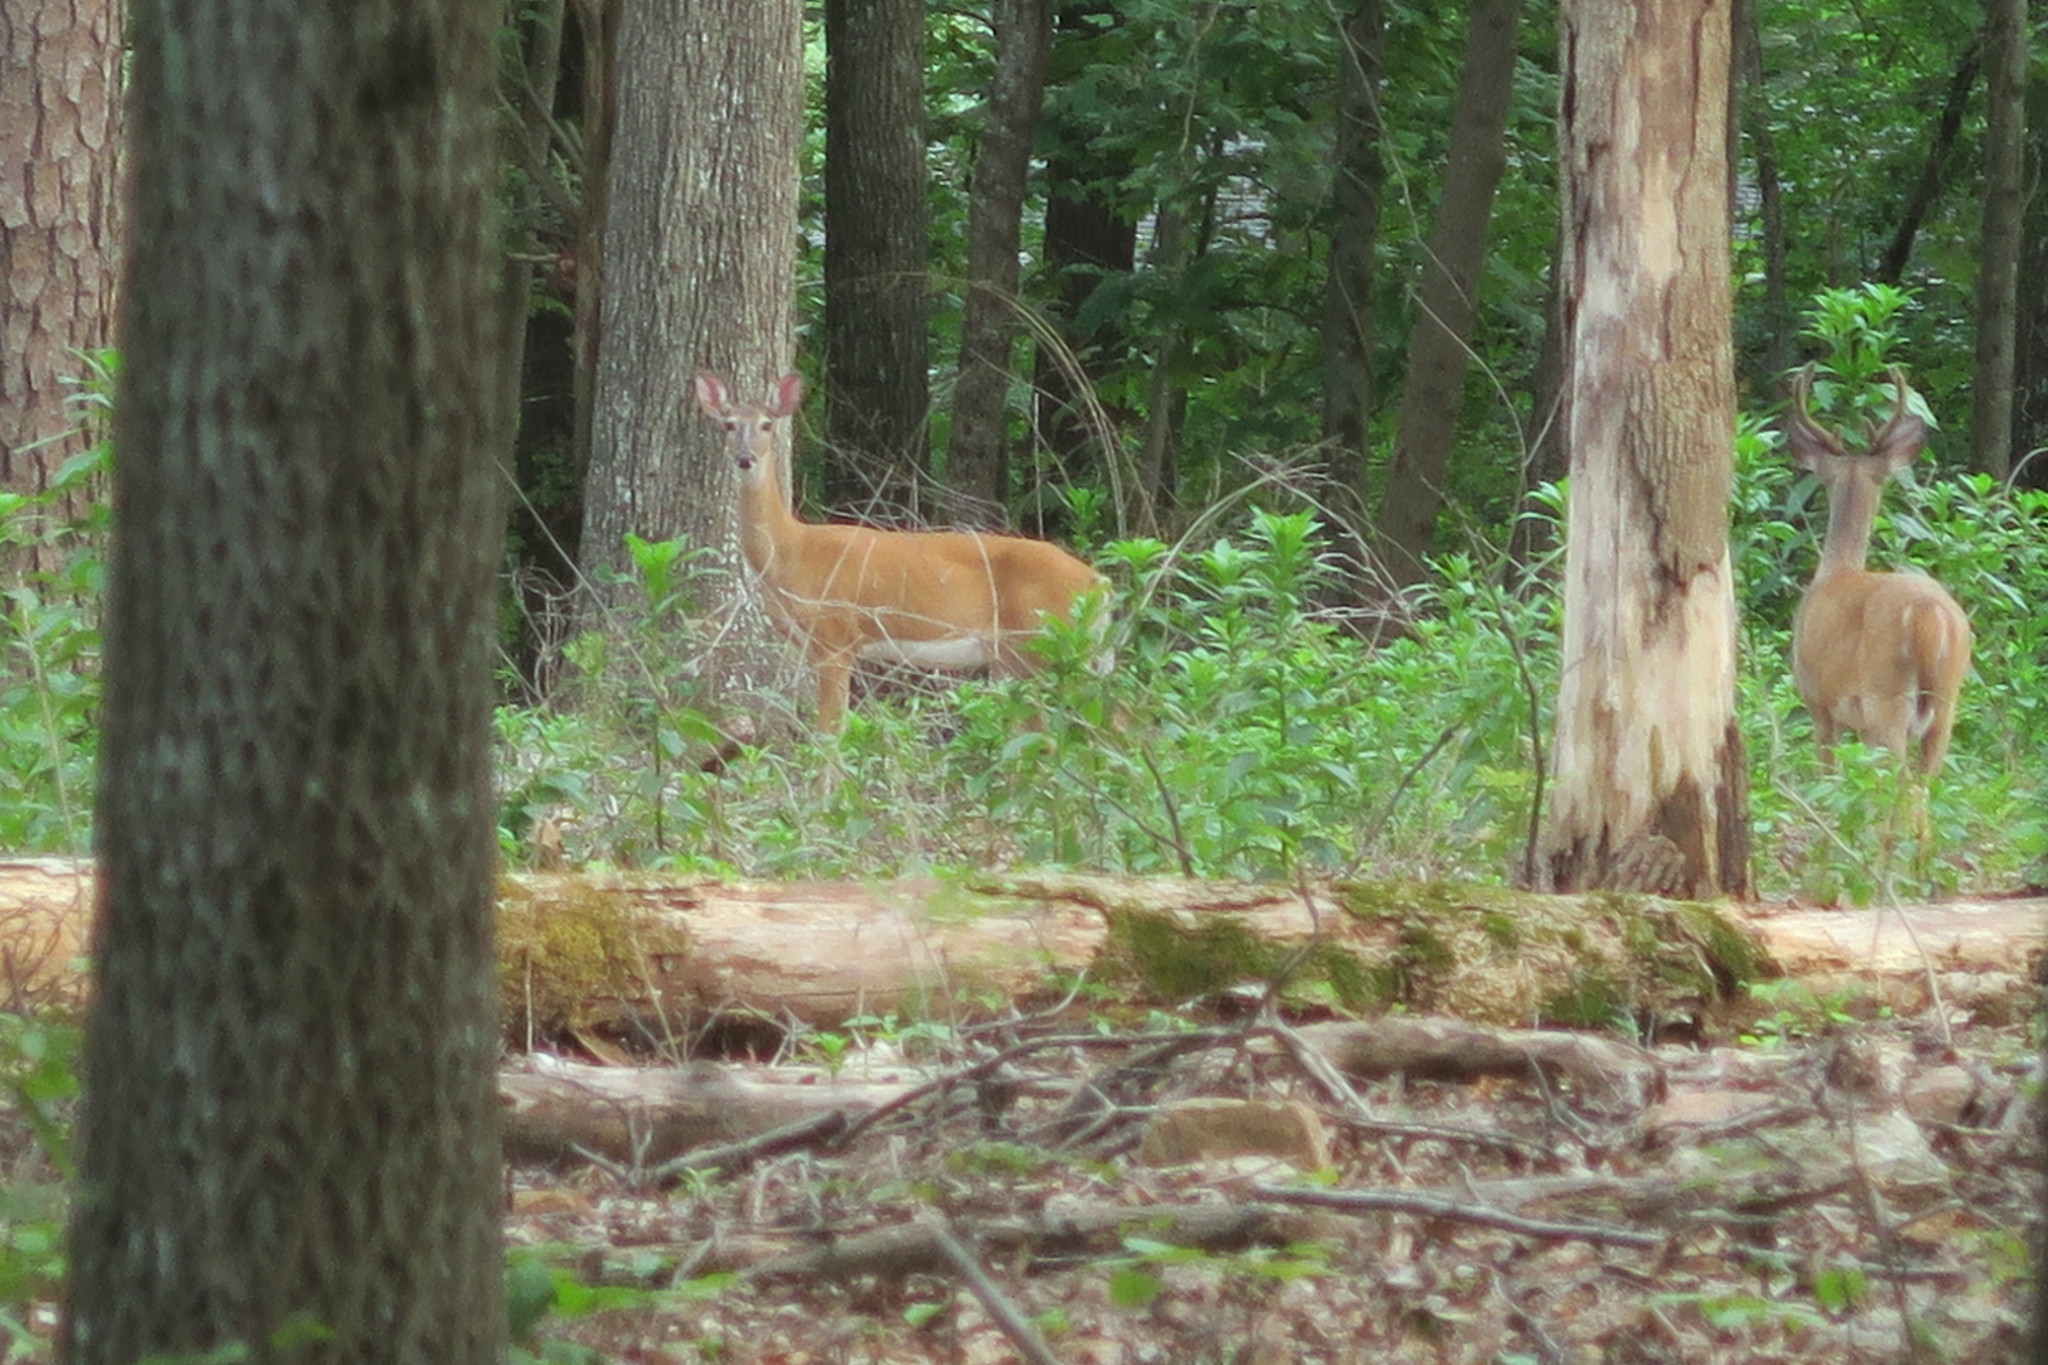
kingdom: Animalia
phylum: Chordata
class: Mammalia
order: Artiodactyla
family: Cervidae
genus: Odocoileus
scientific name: Odocoileus virginianus
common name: White-tailed deer
